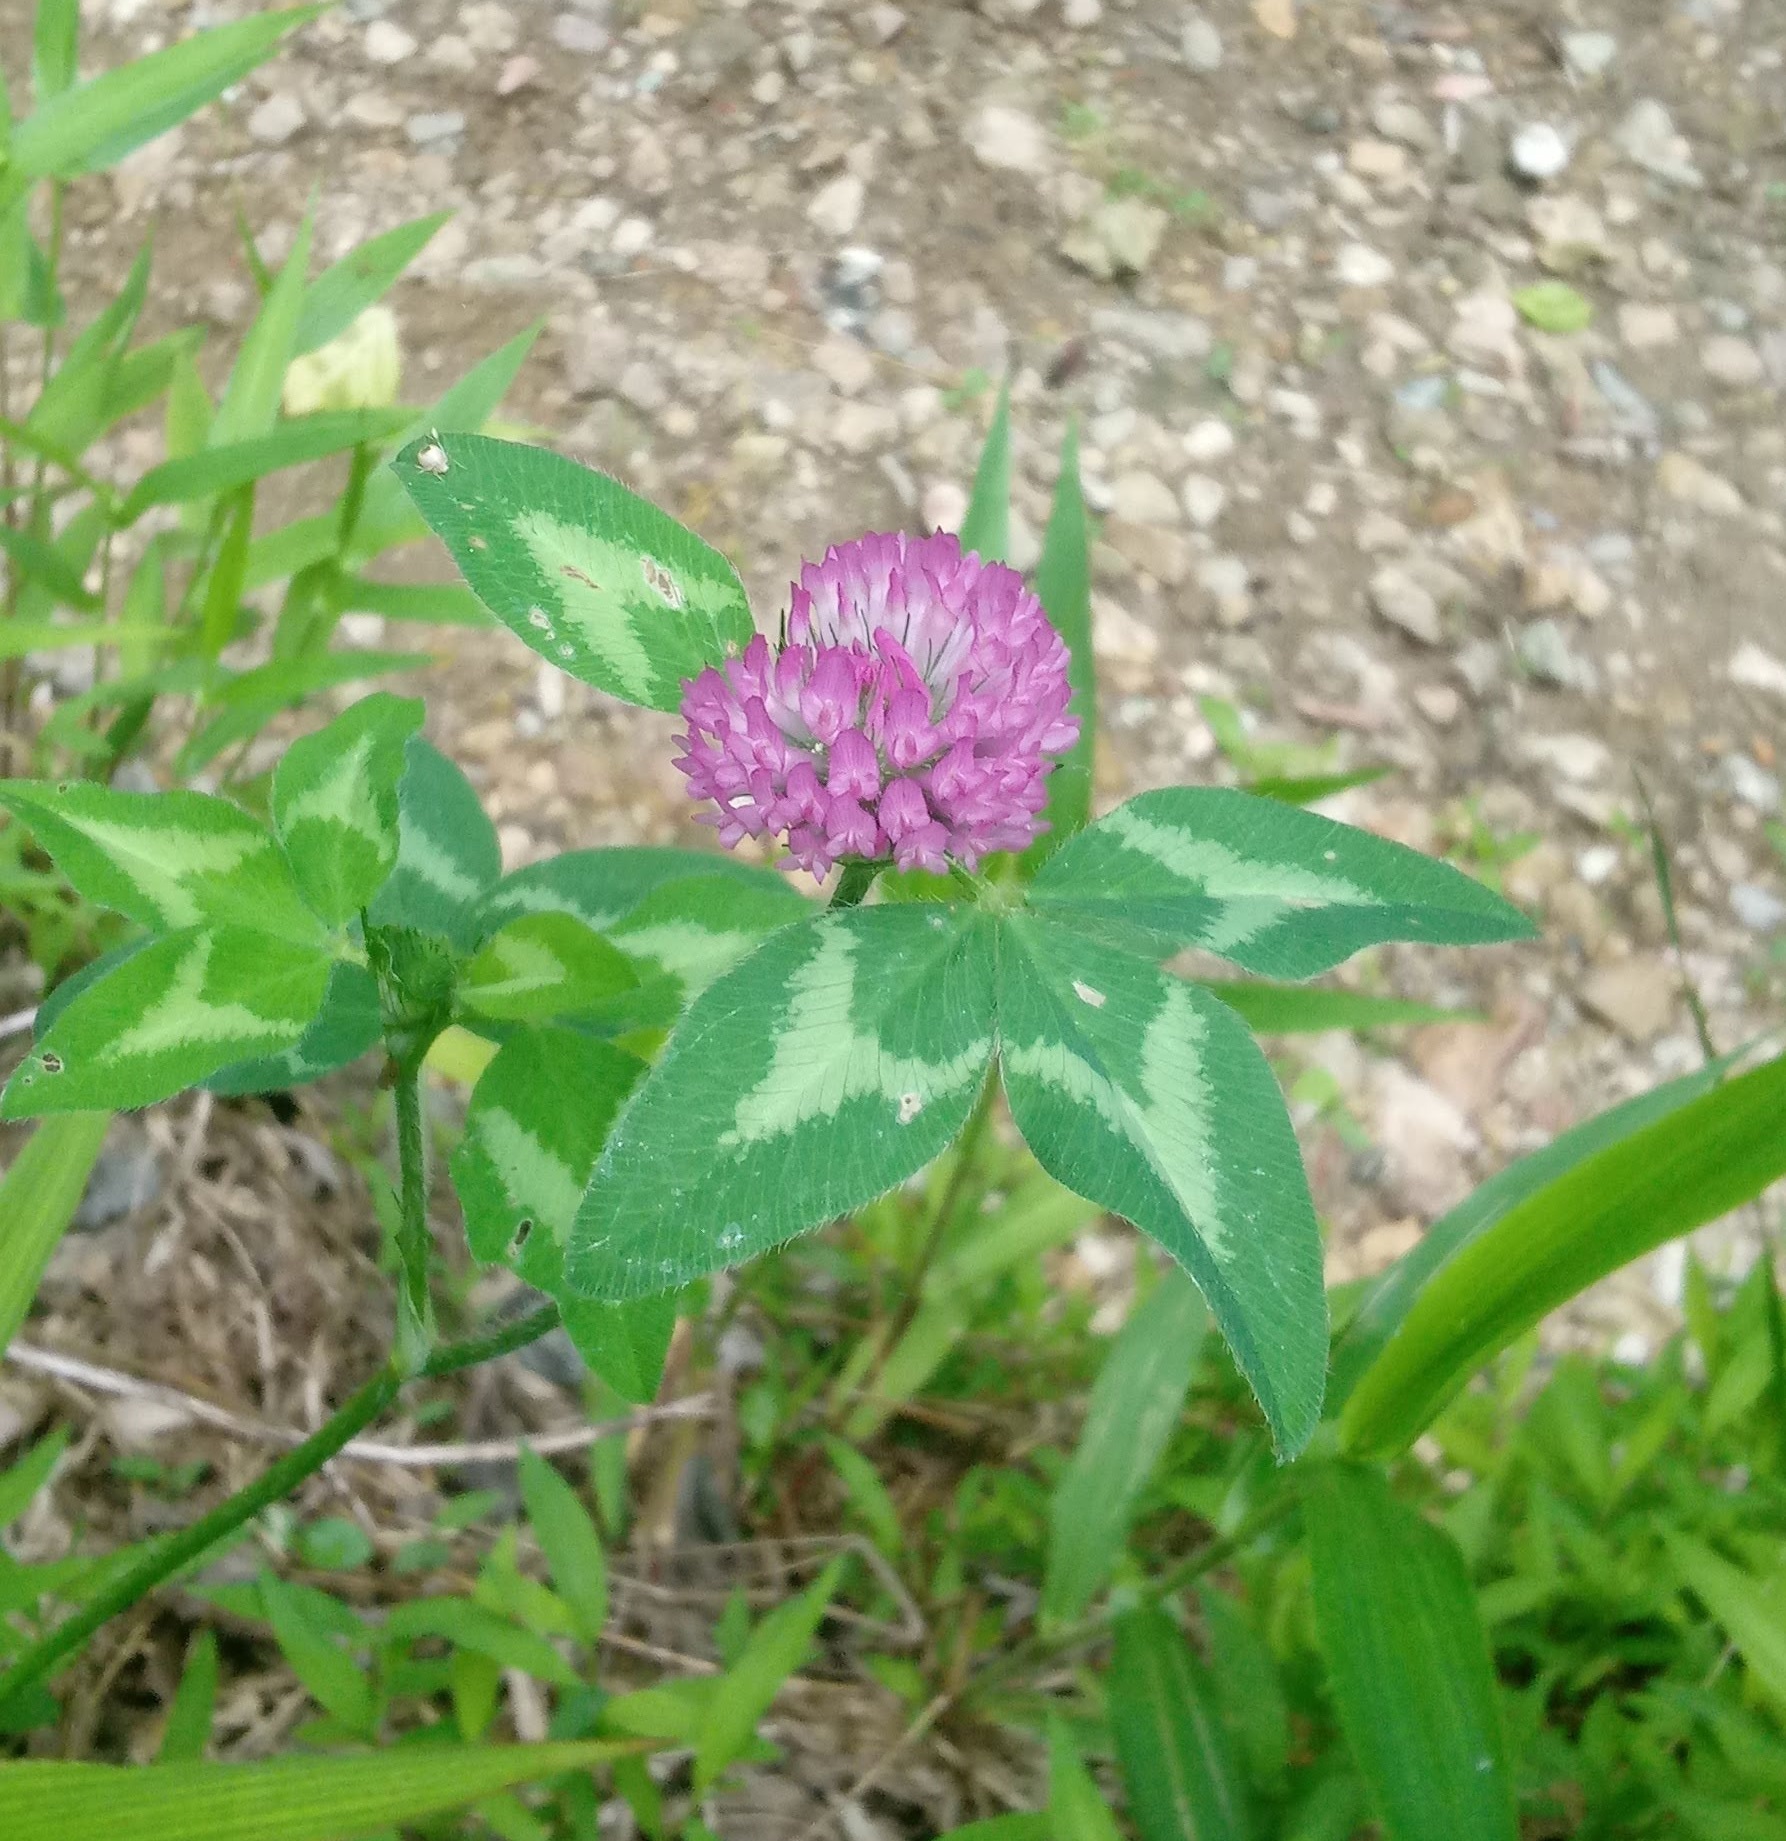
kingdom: Plantae
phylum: Tracheophyta
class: Magnoliopsida
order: Fabales
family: Fabaceae
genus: Trifolium
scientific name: Trifolium pratense
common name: Red clover
